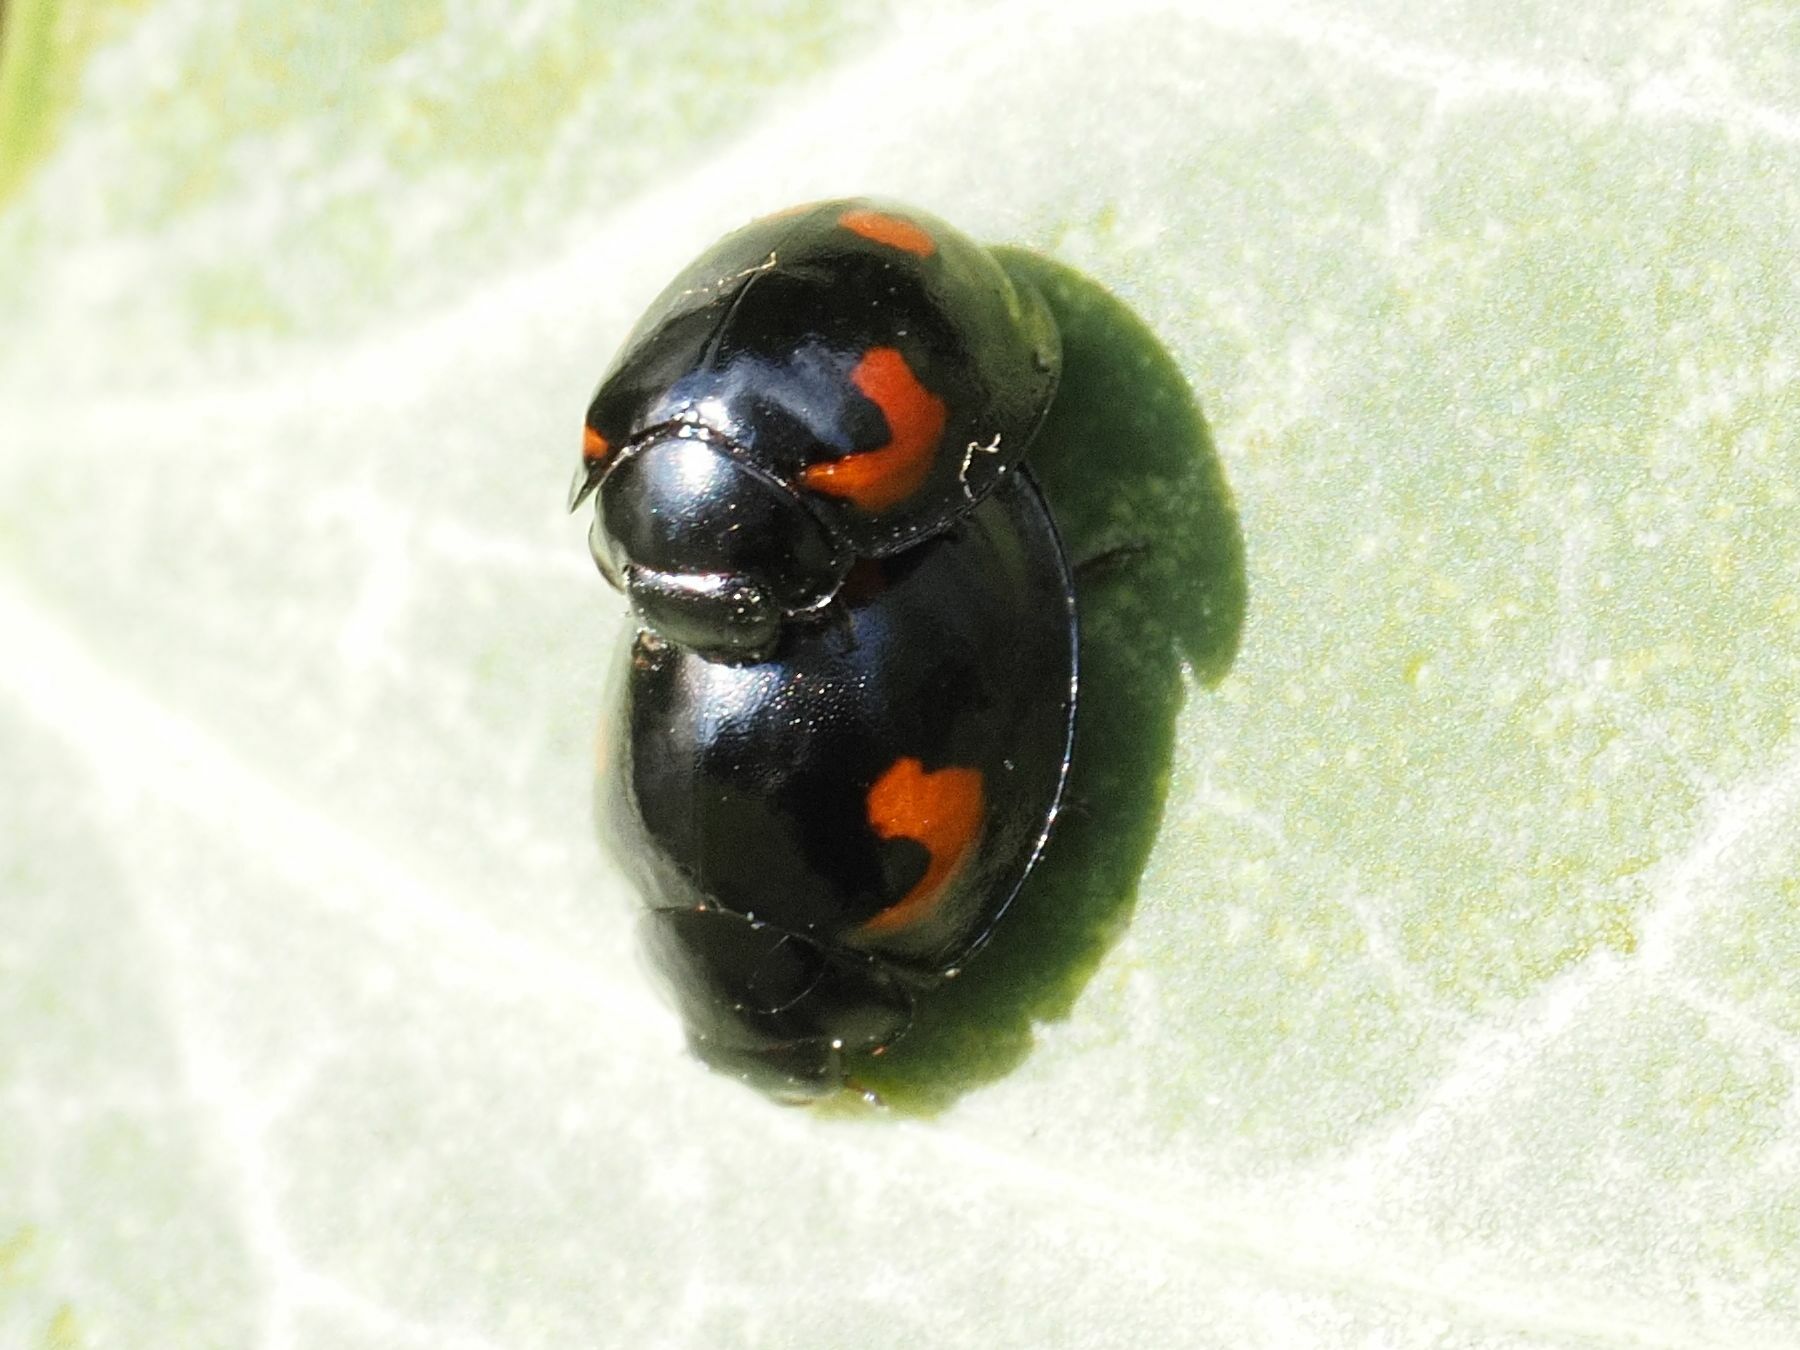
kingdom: Animalia
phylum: Arthropoda
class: Insecta
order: Coleoptera
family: Coccinellidae
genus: Brumus
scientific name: Brumus quadripustulatus
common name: Ladybird beetle
